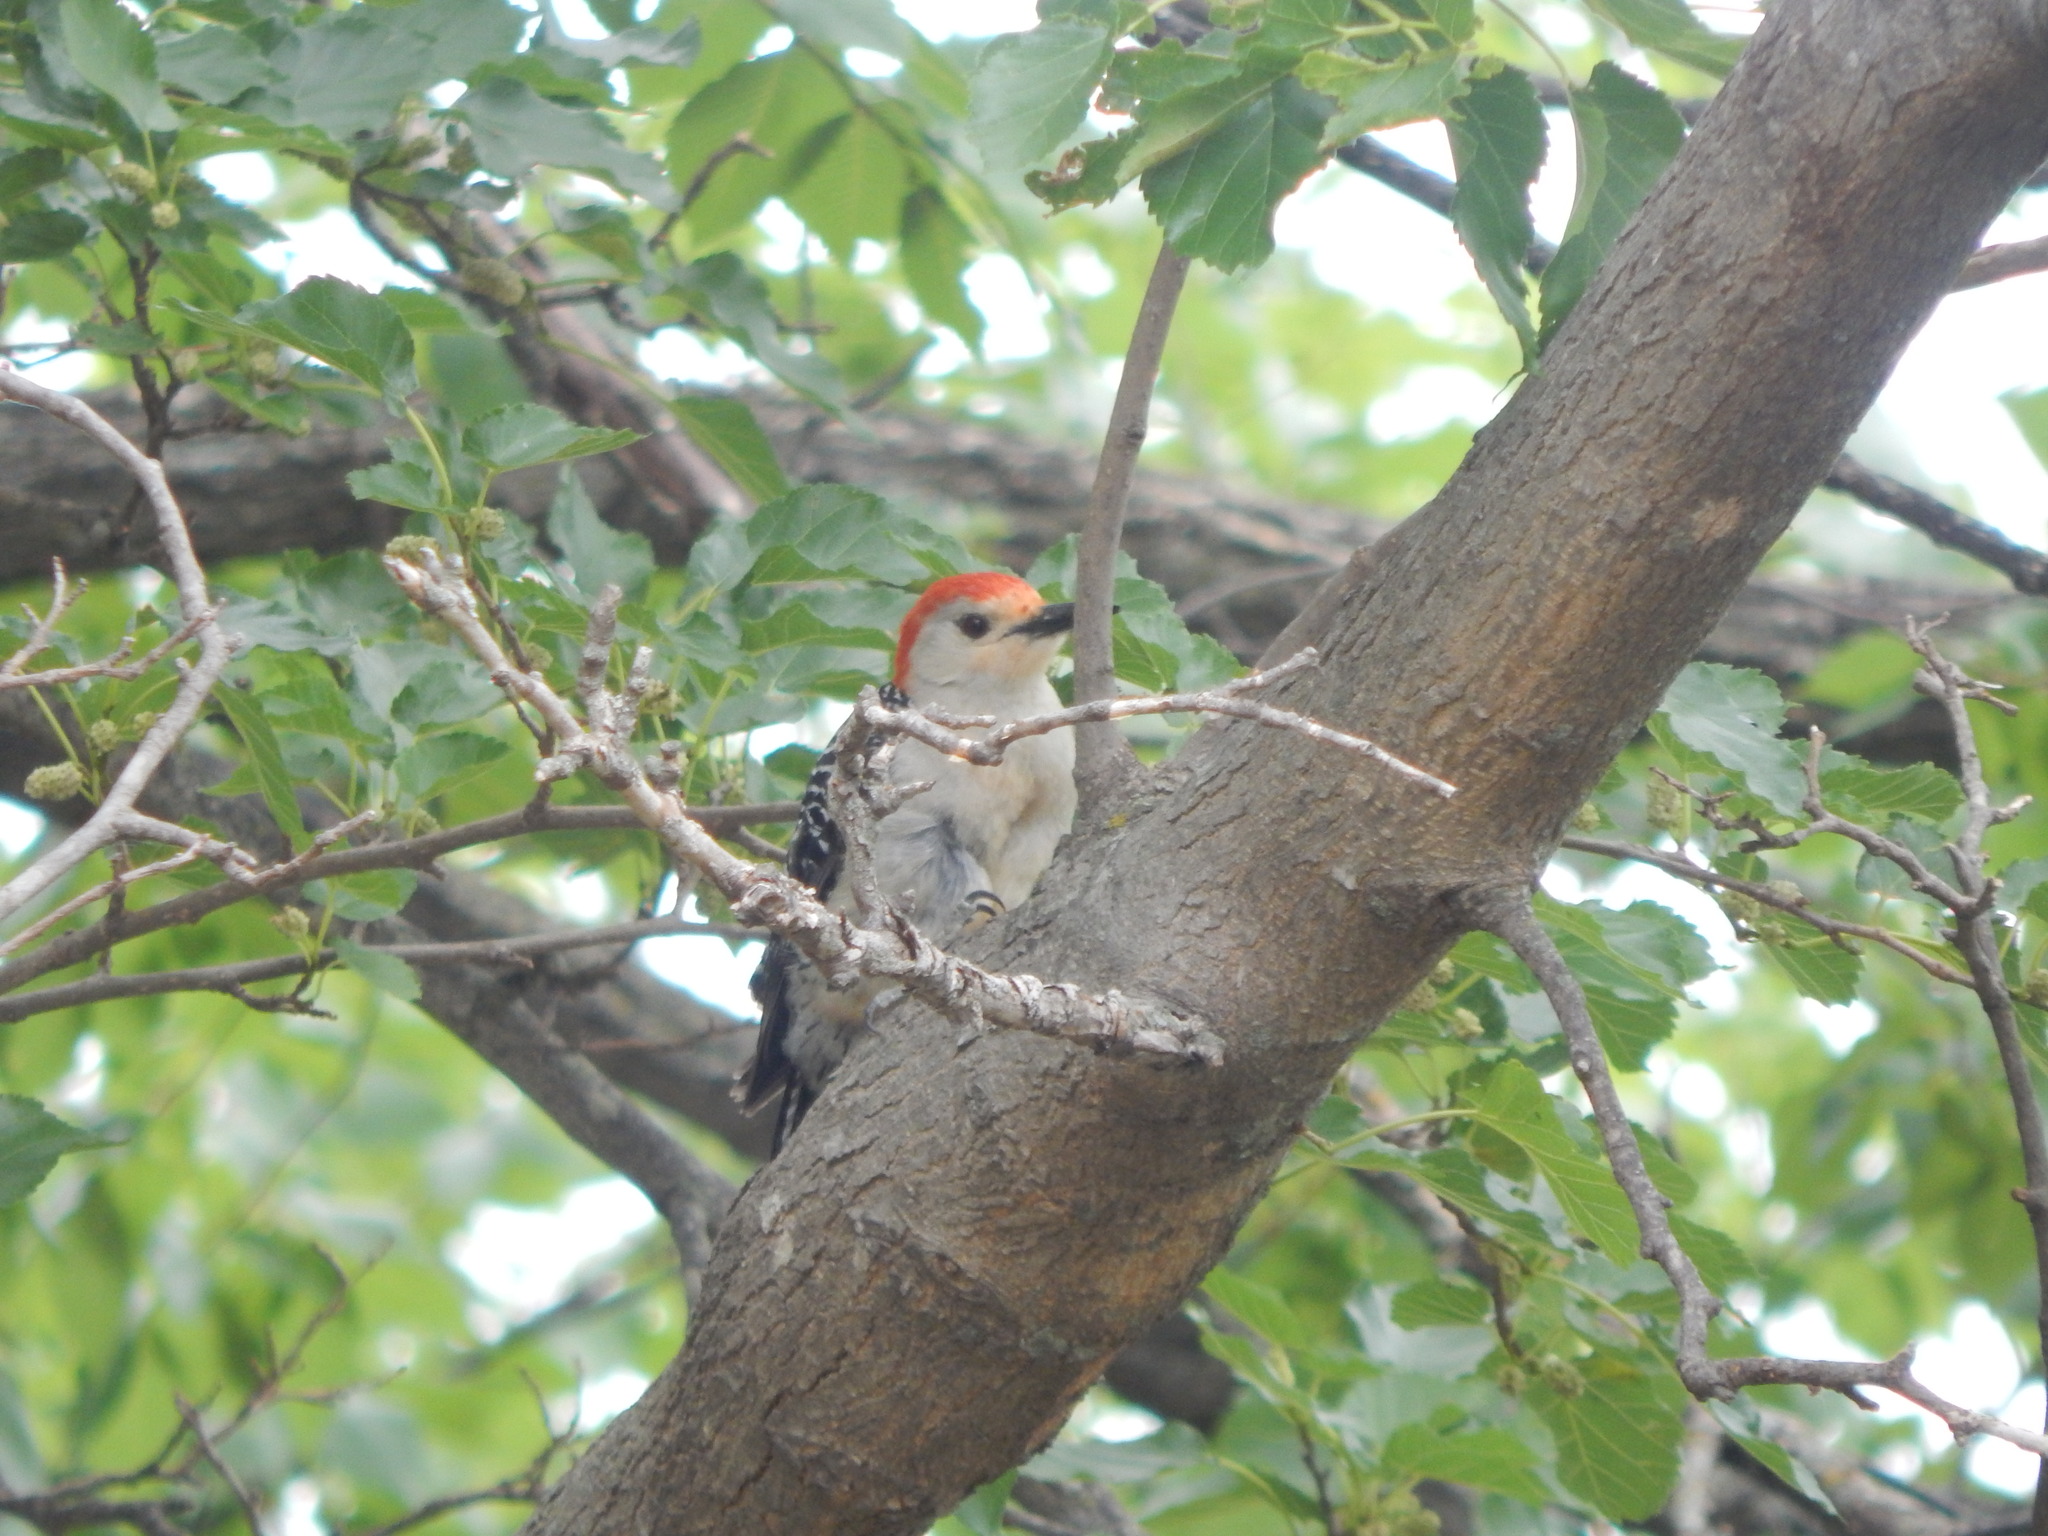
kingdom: Animalia
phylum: Chordata
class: Aves
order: Piciformes
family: Picidae
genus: Melanerpes
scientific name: Melanerpes carolinus
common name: Red-bellied woodpecker
